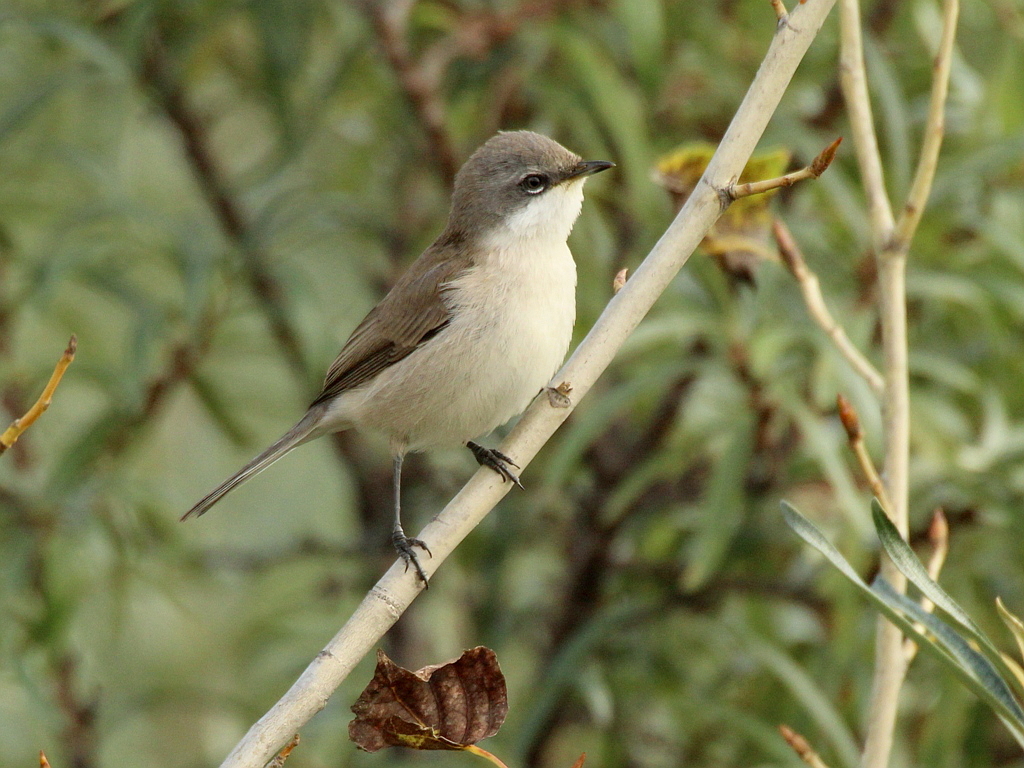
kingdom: Animalia
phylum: Chordata
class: Aves
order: Passeriformes
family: Sylviidae
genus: Sylvia
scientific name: Sylvia curruca
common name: Lesser whitethroat
